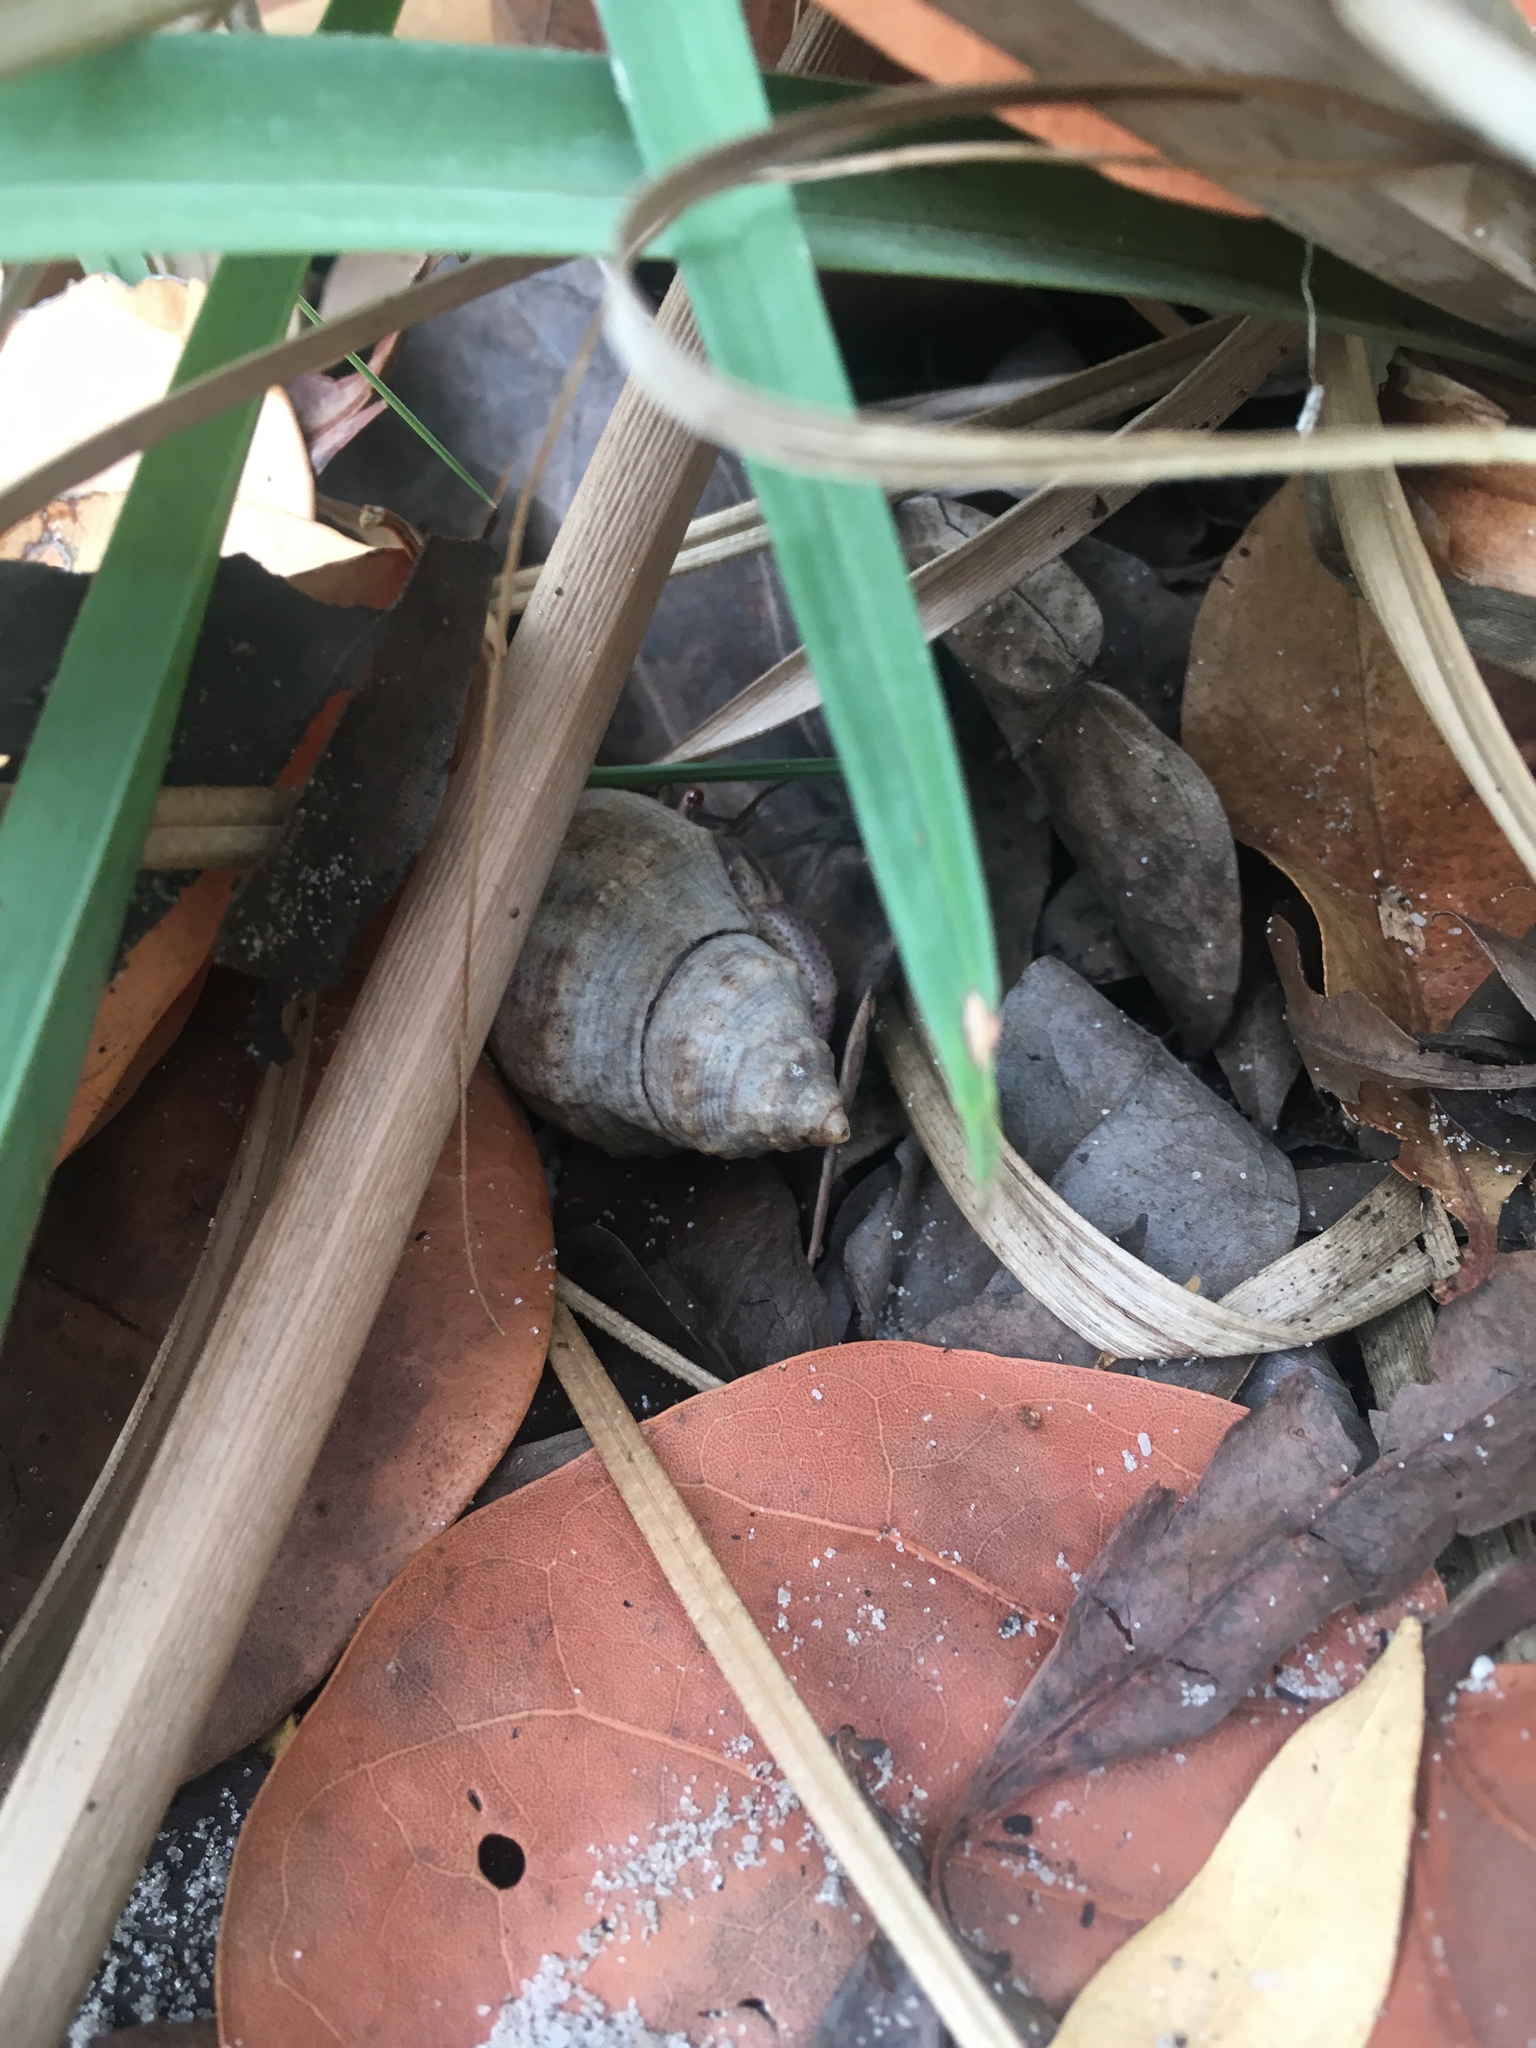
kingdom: Animalia
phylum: Arthropoda
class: Malacostraca
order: Decapoda
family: Coenobitidae
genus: Coenobita
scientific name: Coenobita clypeatus
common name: Caribbean hermit crab
